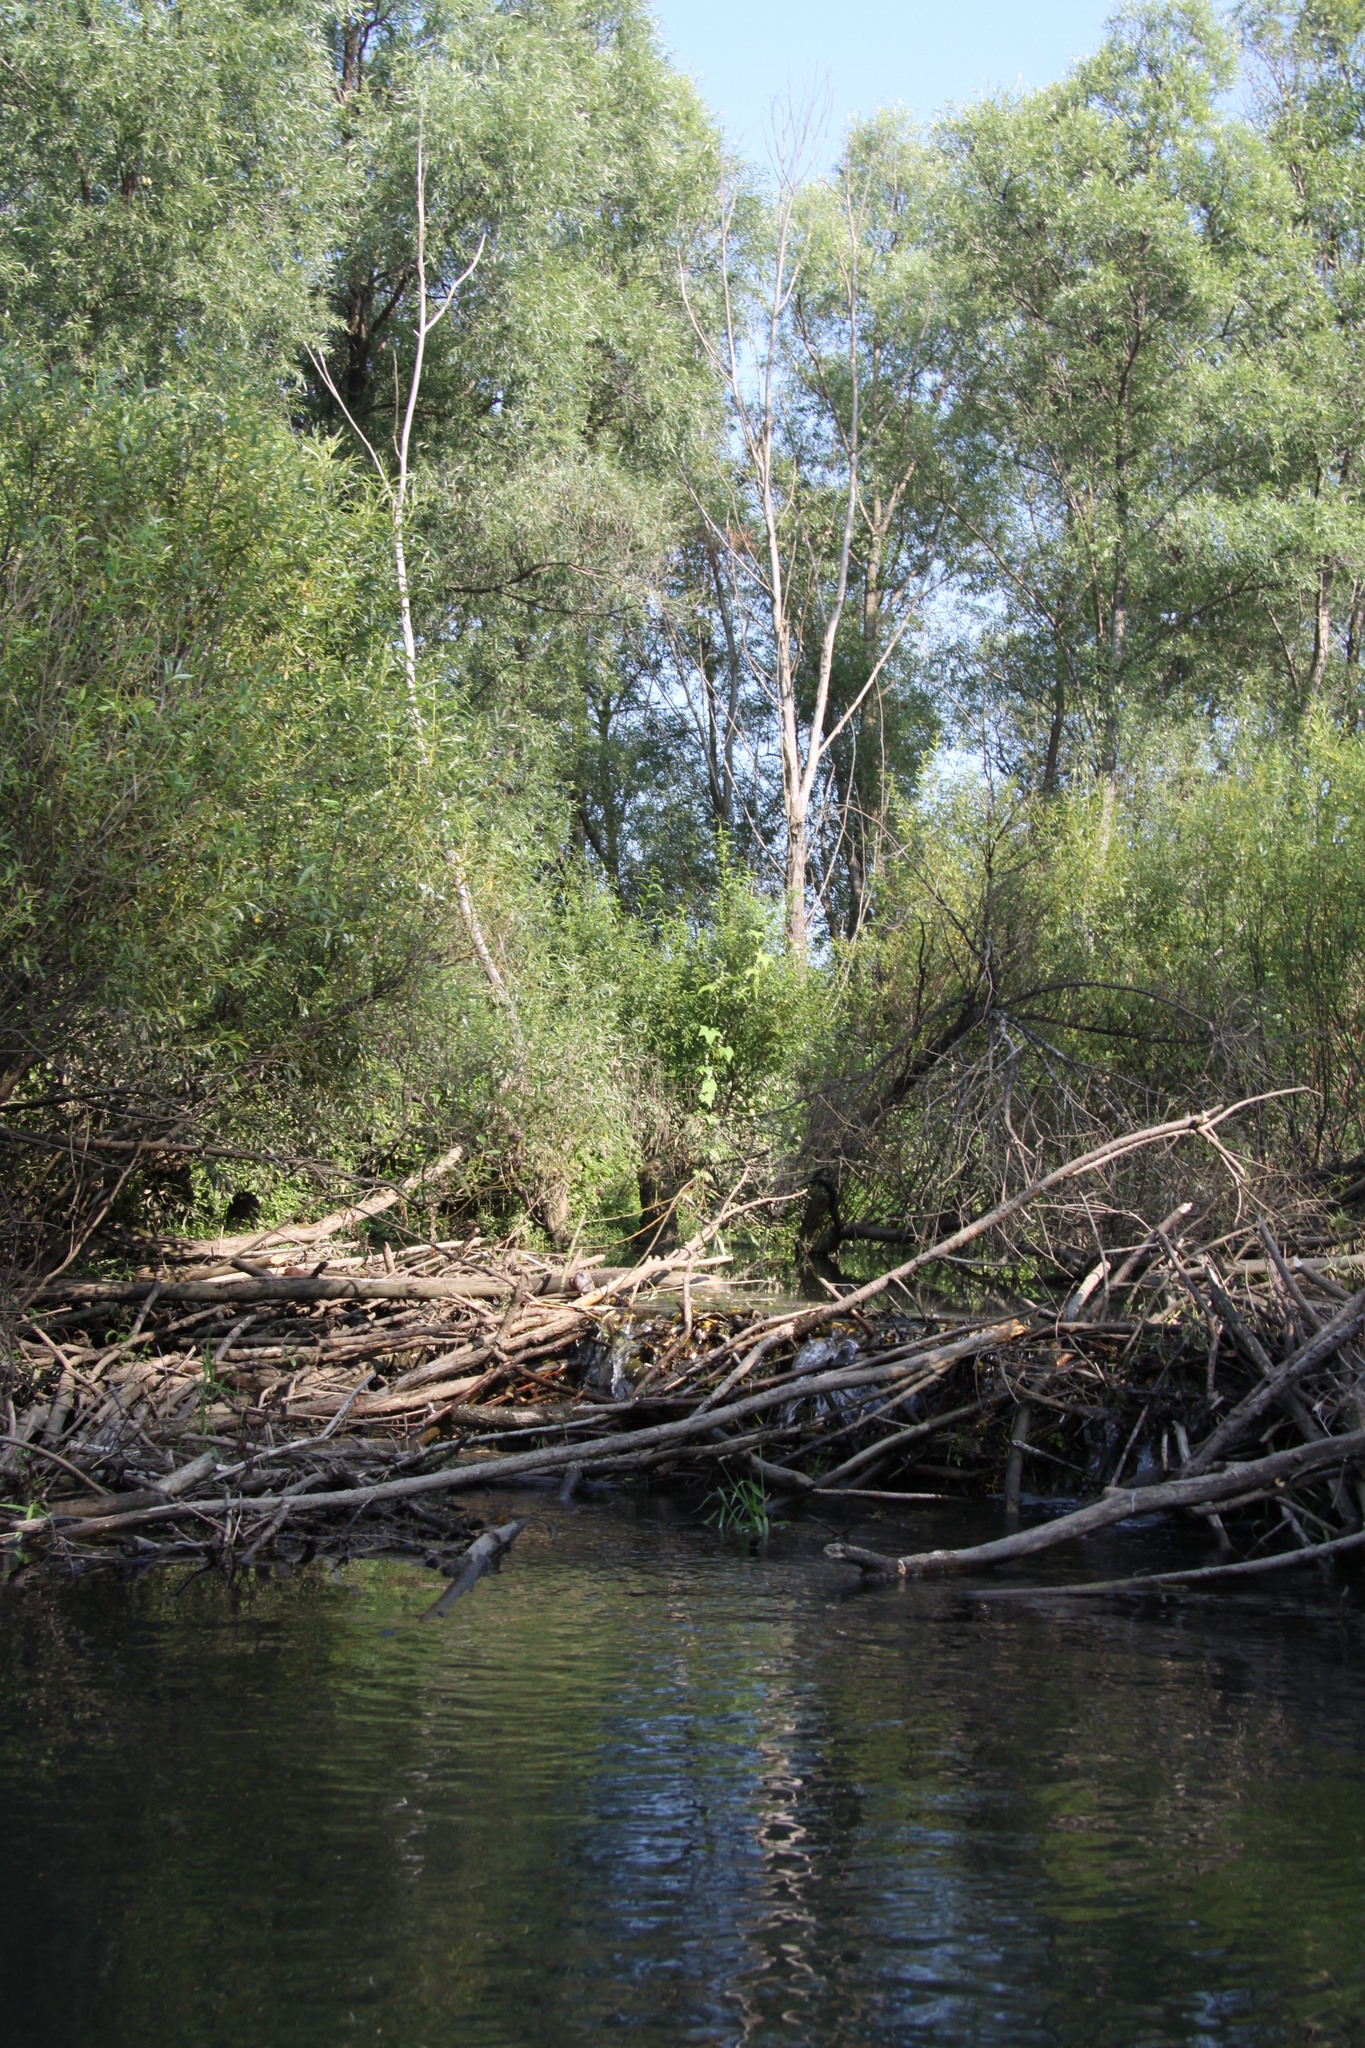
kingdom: Animalia
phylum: Chordata
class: Mammalia
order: Rodentia
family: Castoridae
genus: Castor
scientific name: Castor fiber
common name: Eurasian beaver
